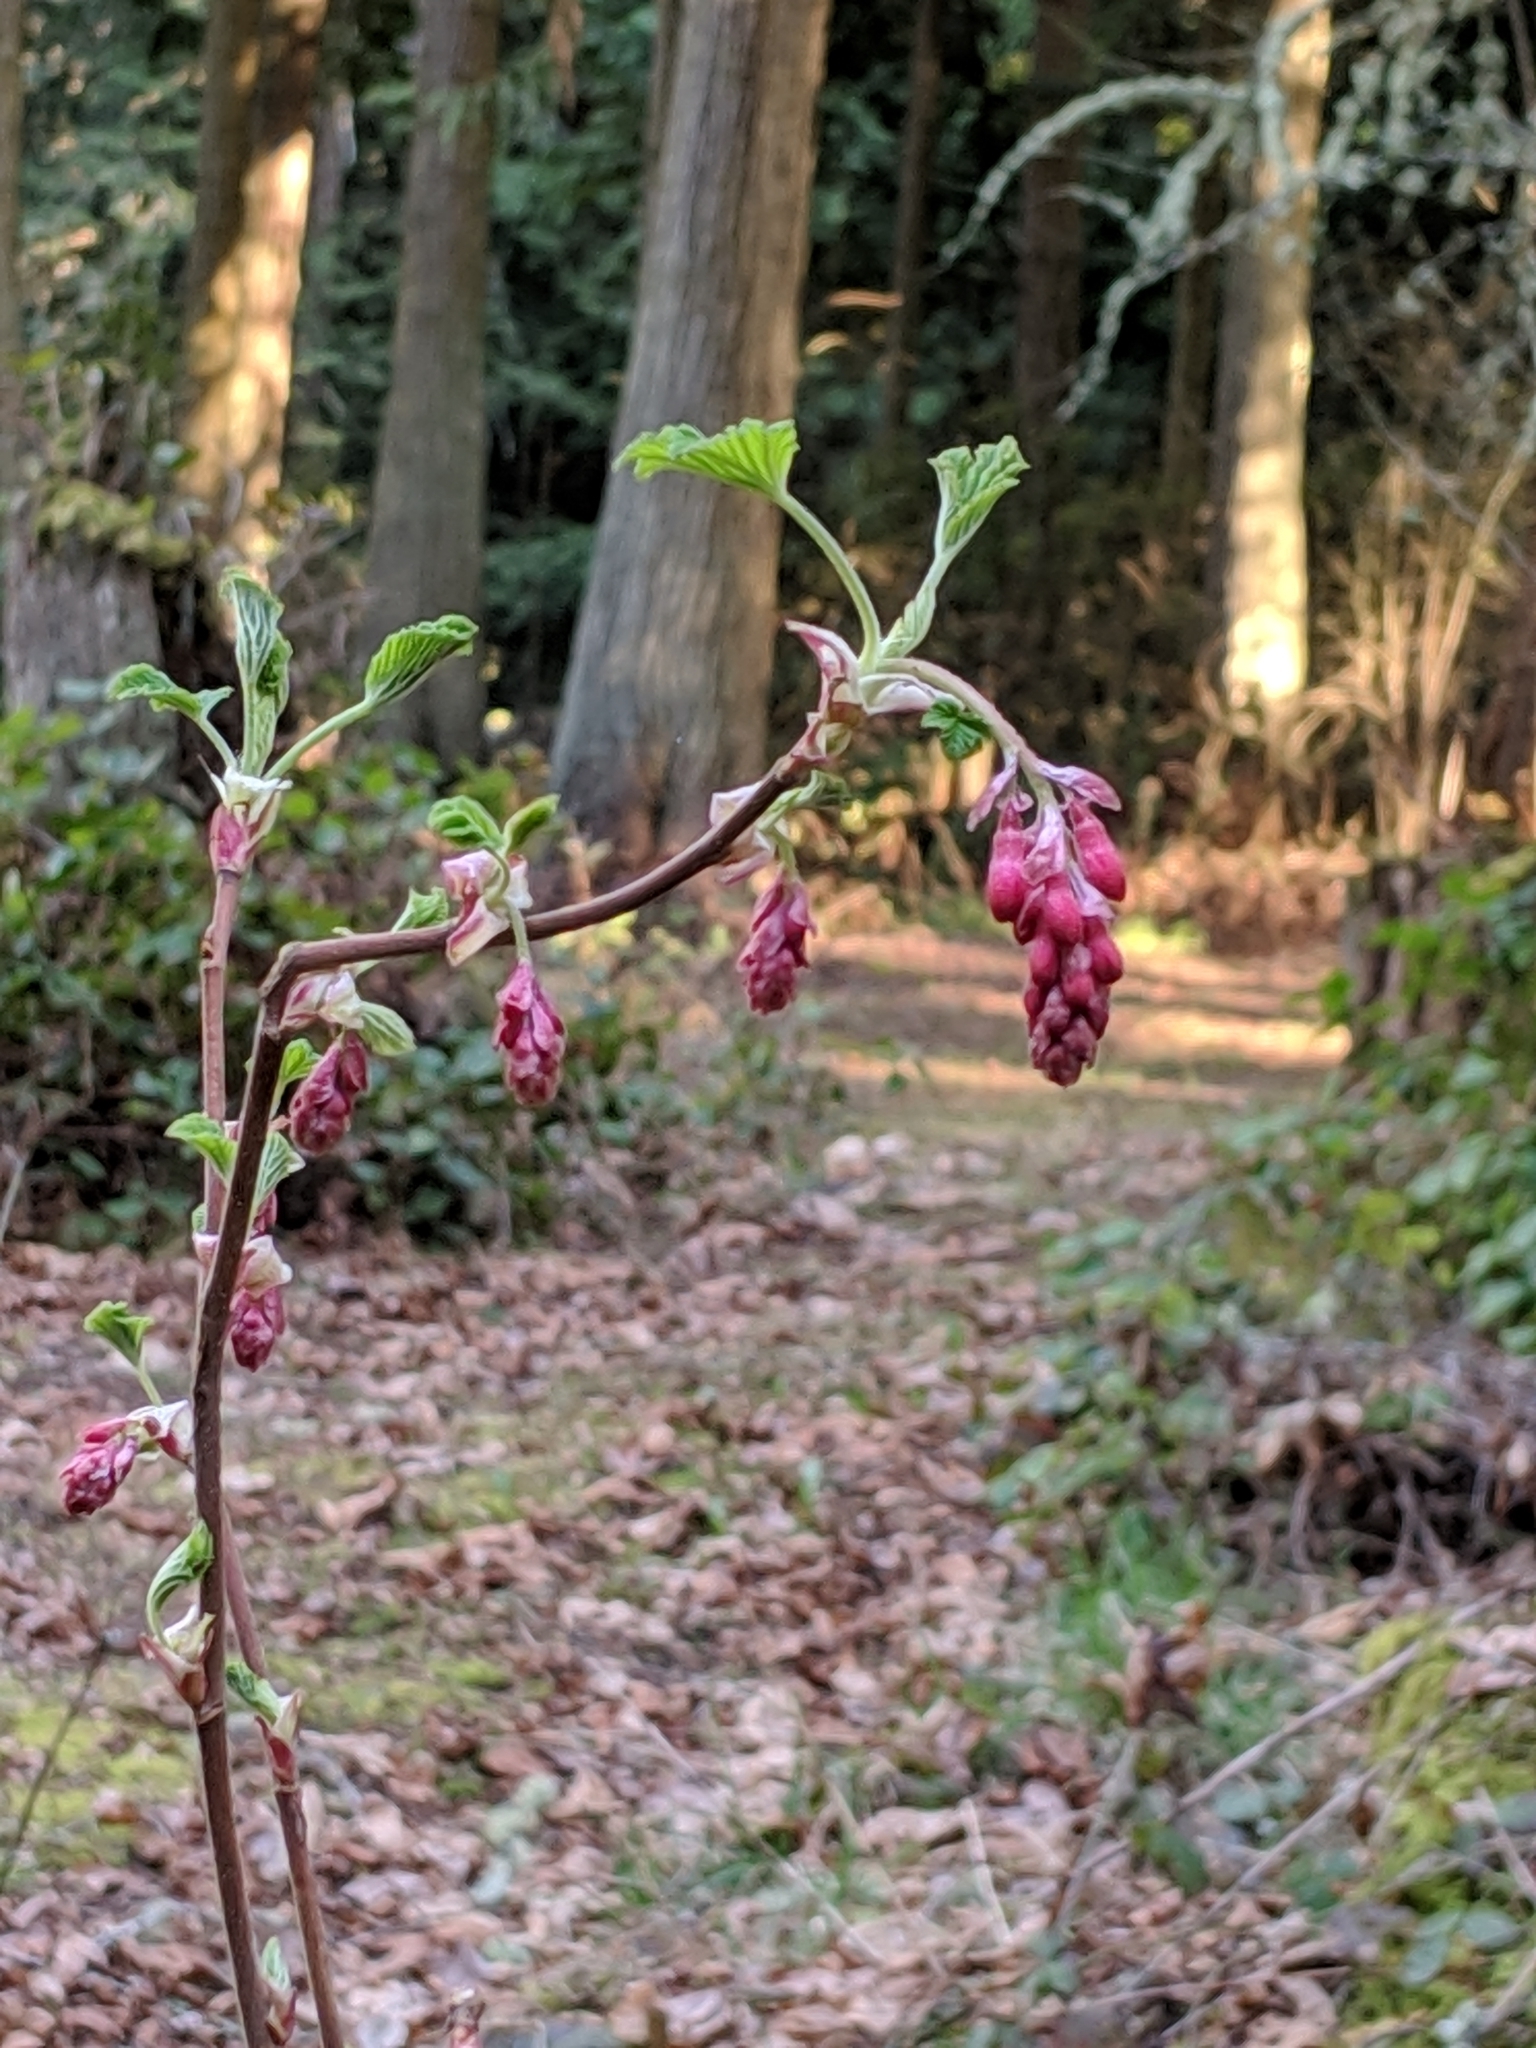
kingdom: Plantae
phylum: Tracheophyta
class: Magnoliopsida
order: Saxifragales
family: Grossulariaceae
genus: Ribes
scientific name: Ribes sanguineum
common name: Flowering currant
